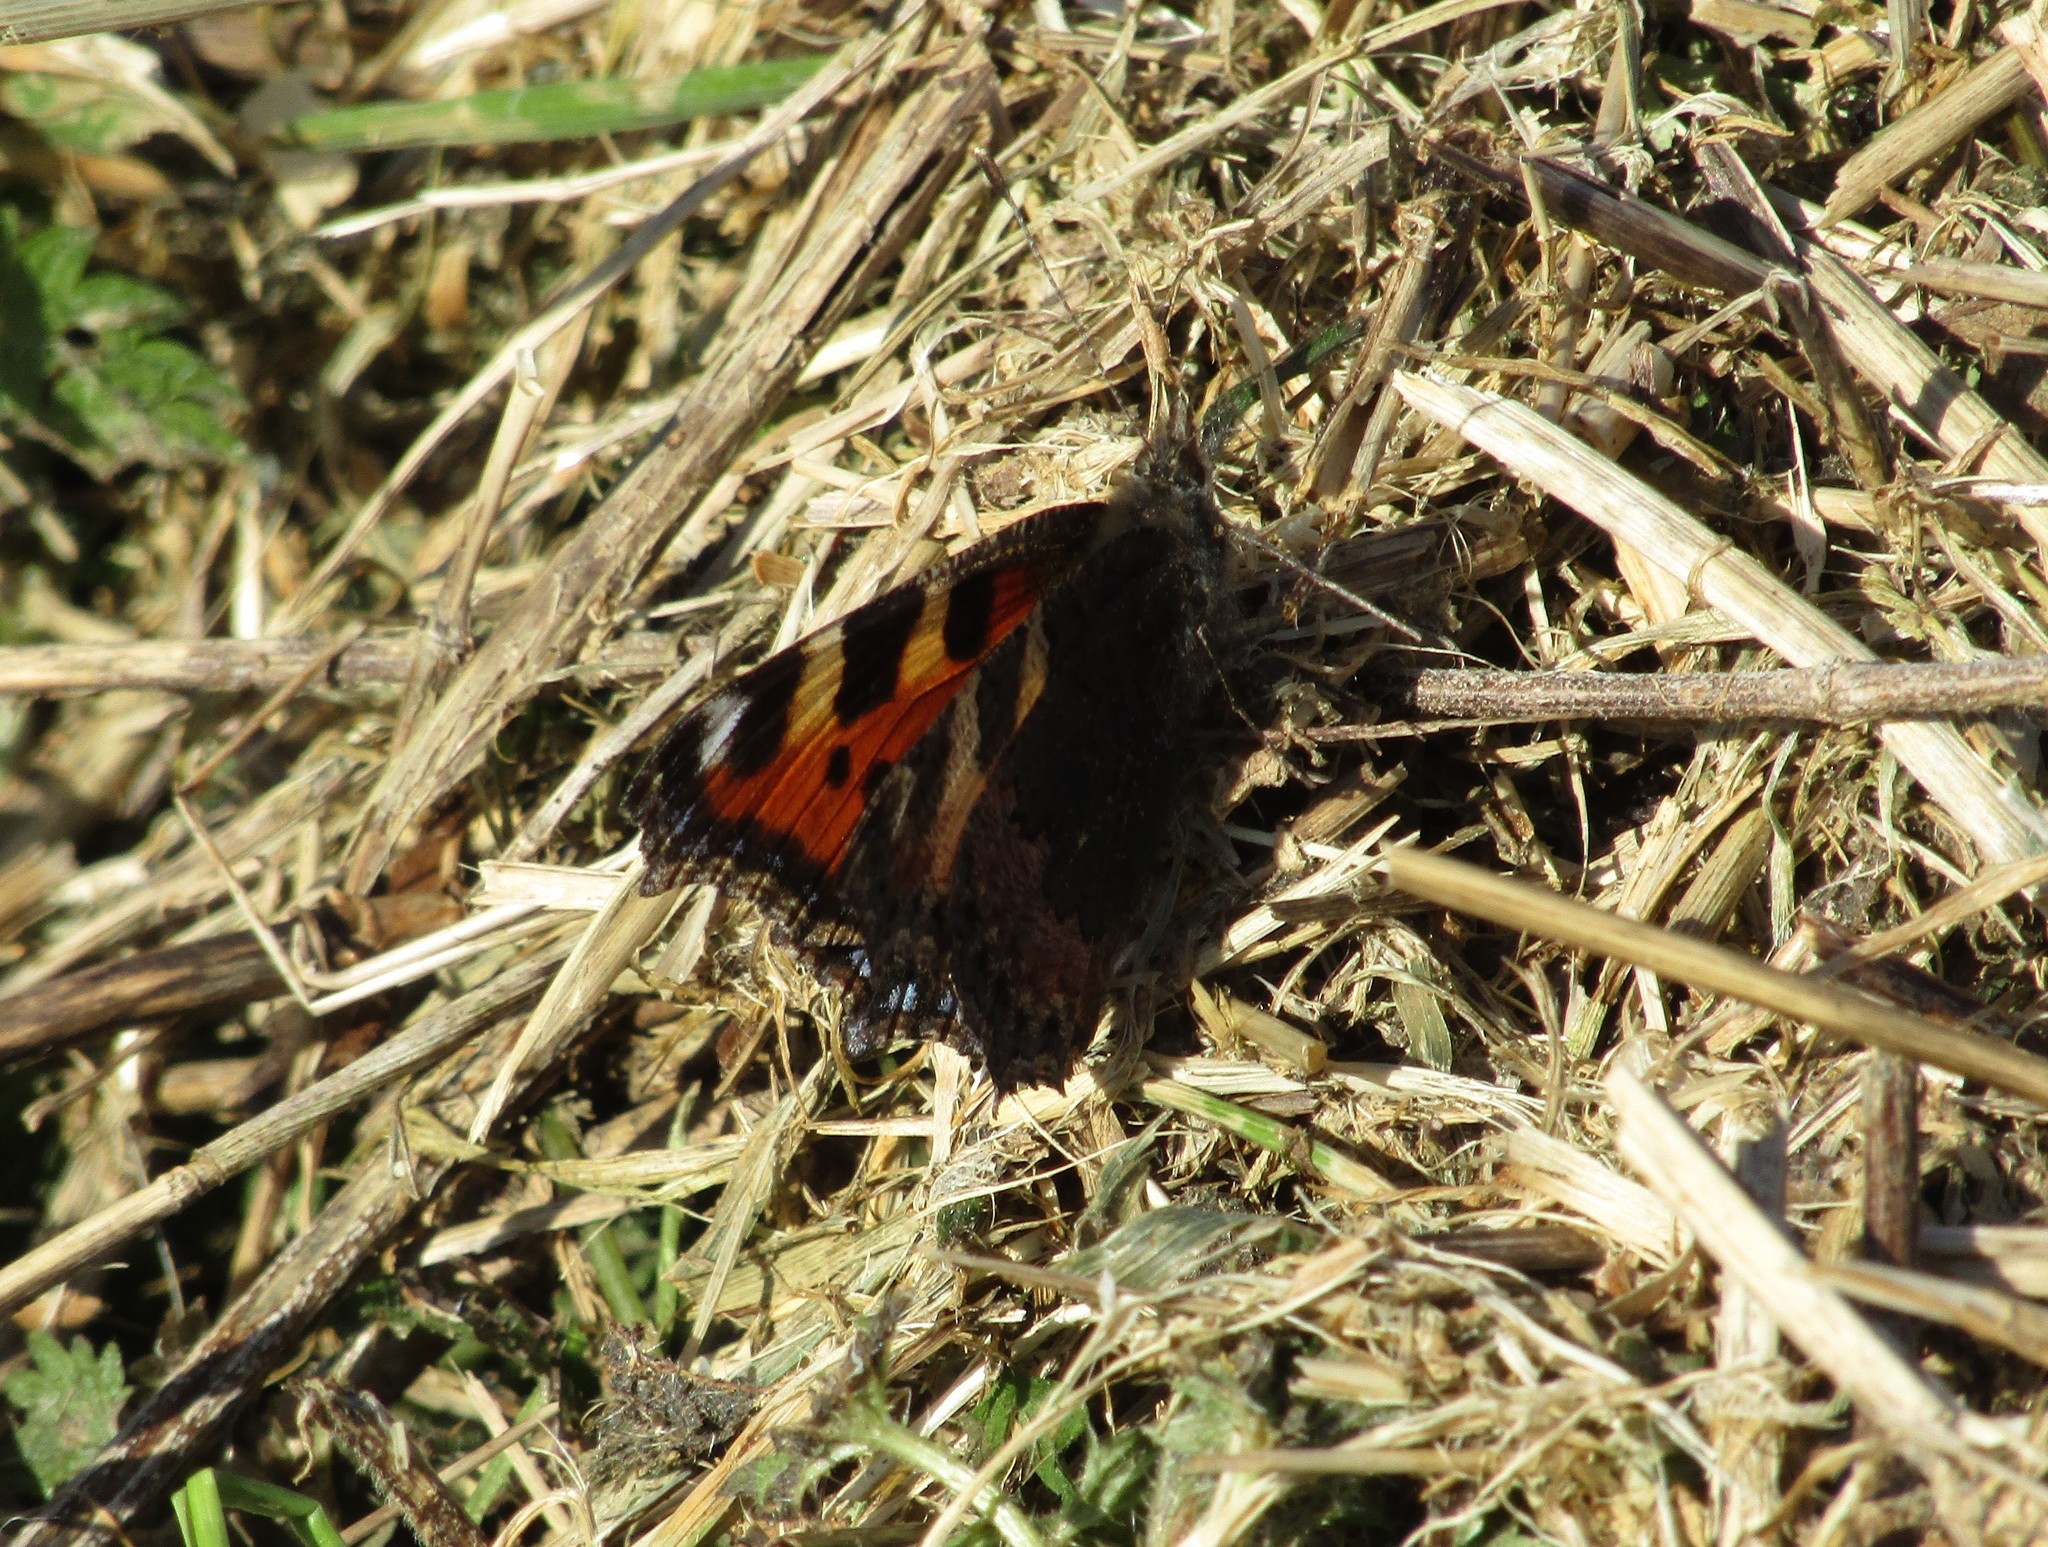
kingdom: Animalia
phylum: Arthropoda
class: Insecta
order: Lepidoptera
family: Nymphalidae
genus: Aglais
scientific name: Aglais urticae
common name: Small tortoiseshell
